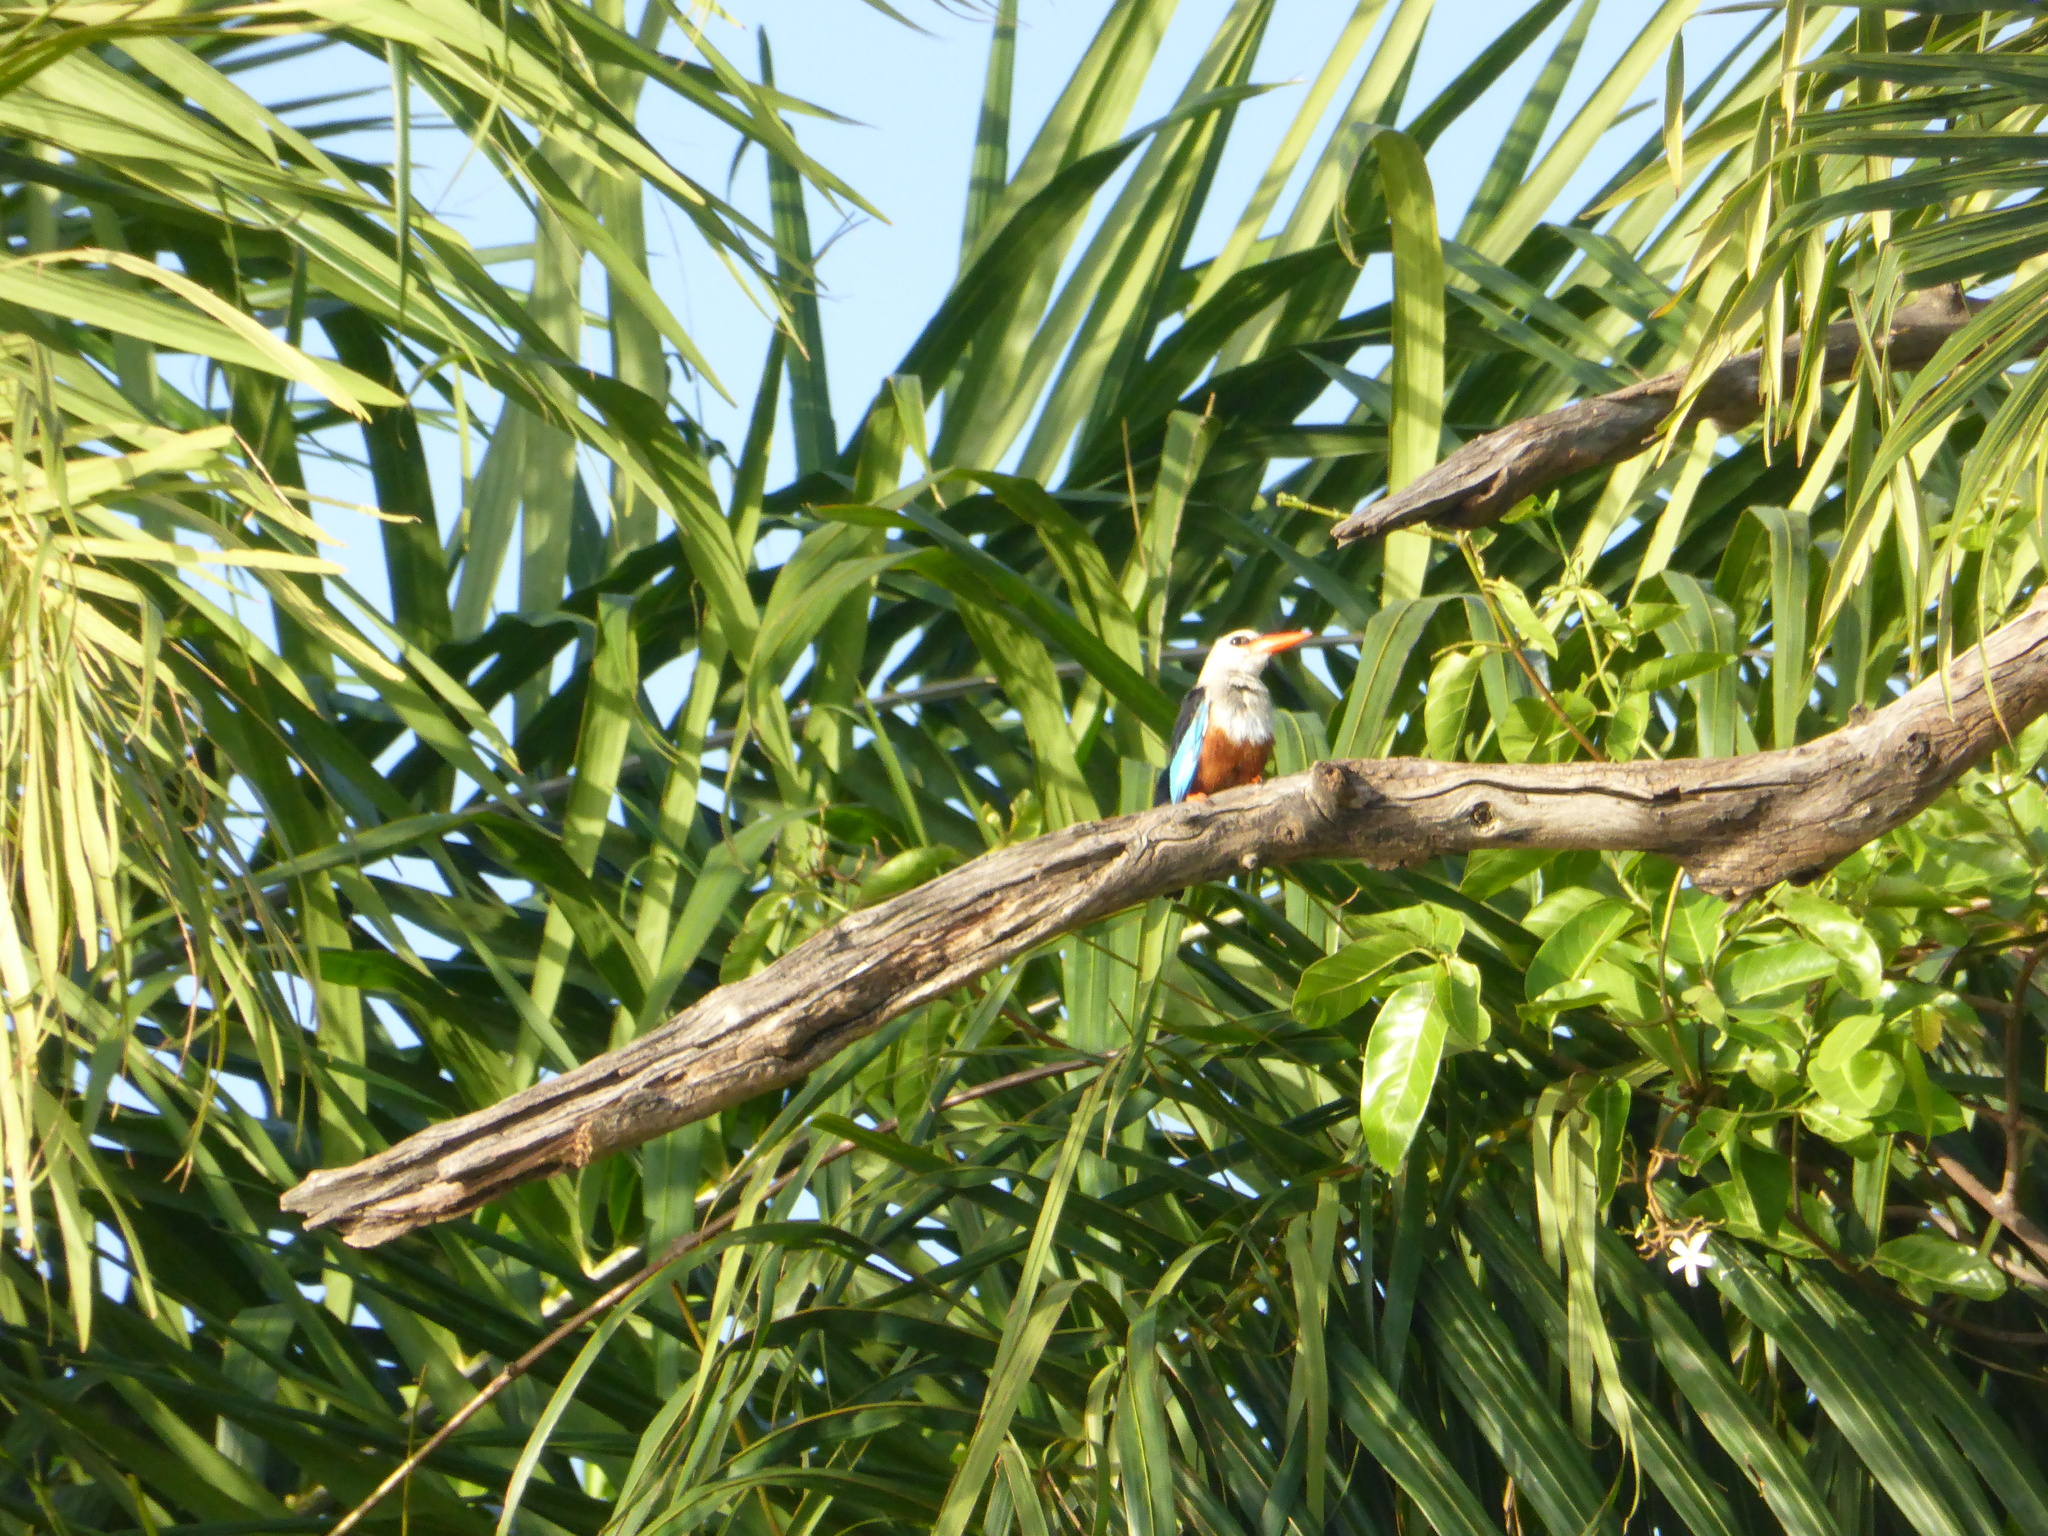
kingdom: Animalia
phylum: Chordata
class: Aves
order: Coraciiformes
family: Alcedinidae
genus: Halcyon
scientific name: Halcyon leucocephala
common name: Grey-headed kingfisher
